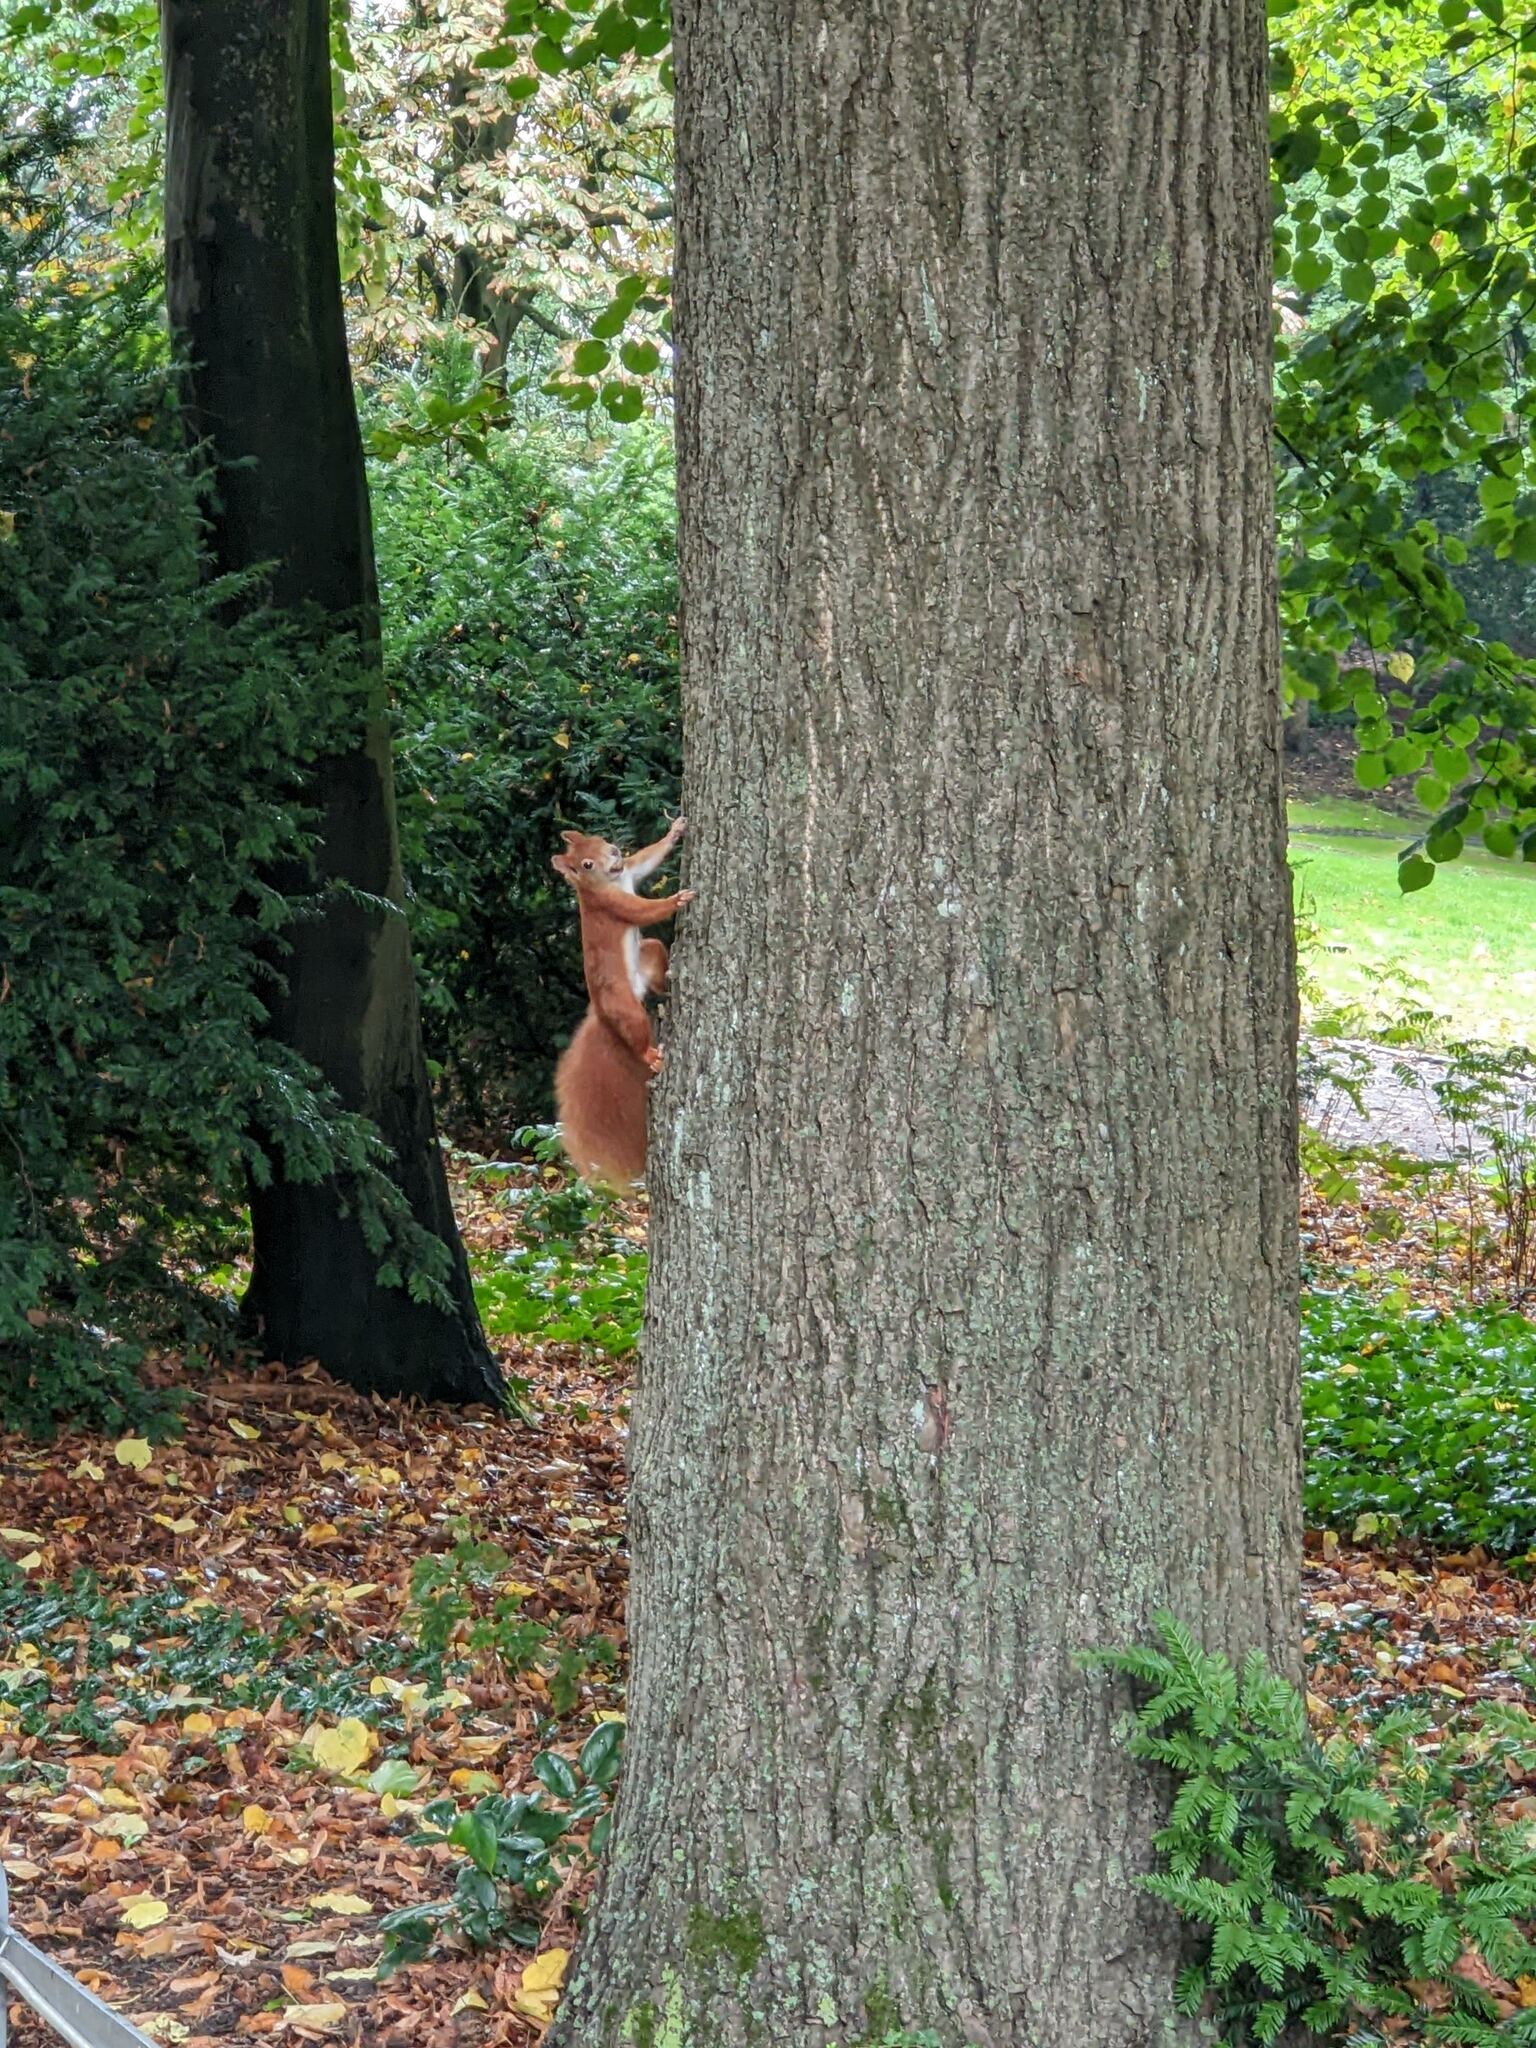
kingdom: Animalia
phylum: Chordata
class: Mammalia
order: Rodentia
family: Sciuridae
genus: Sciurus
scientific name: Sciurus vulgaris
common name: Eurasian red squirrel
